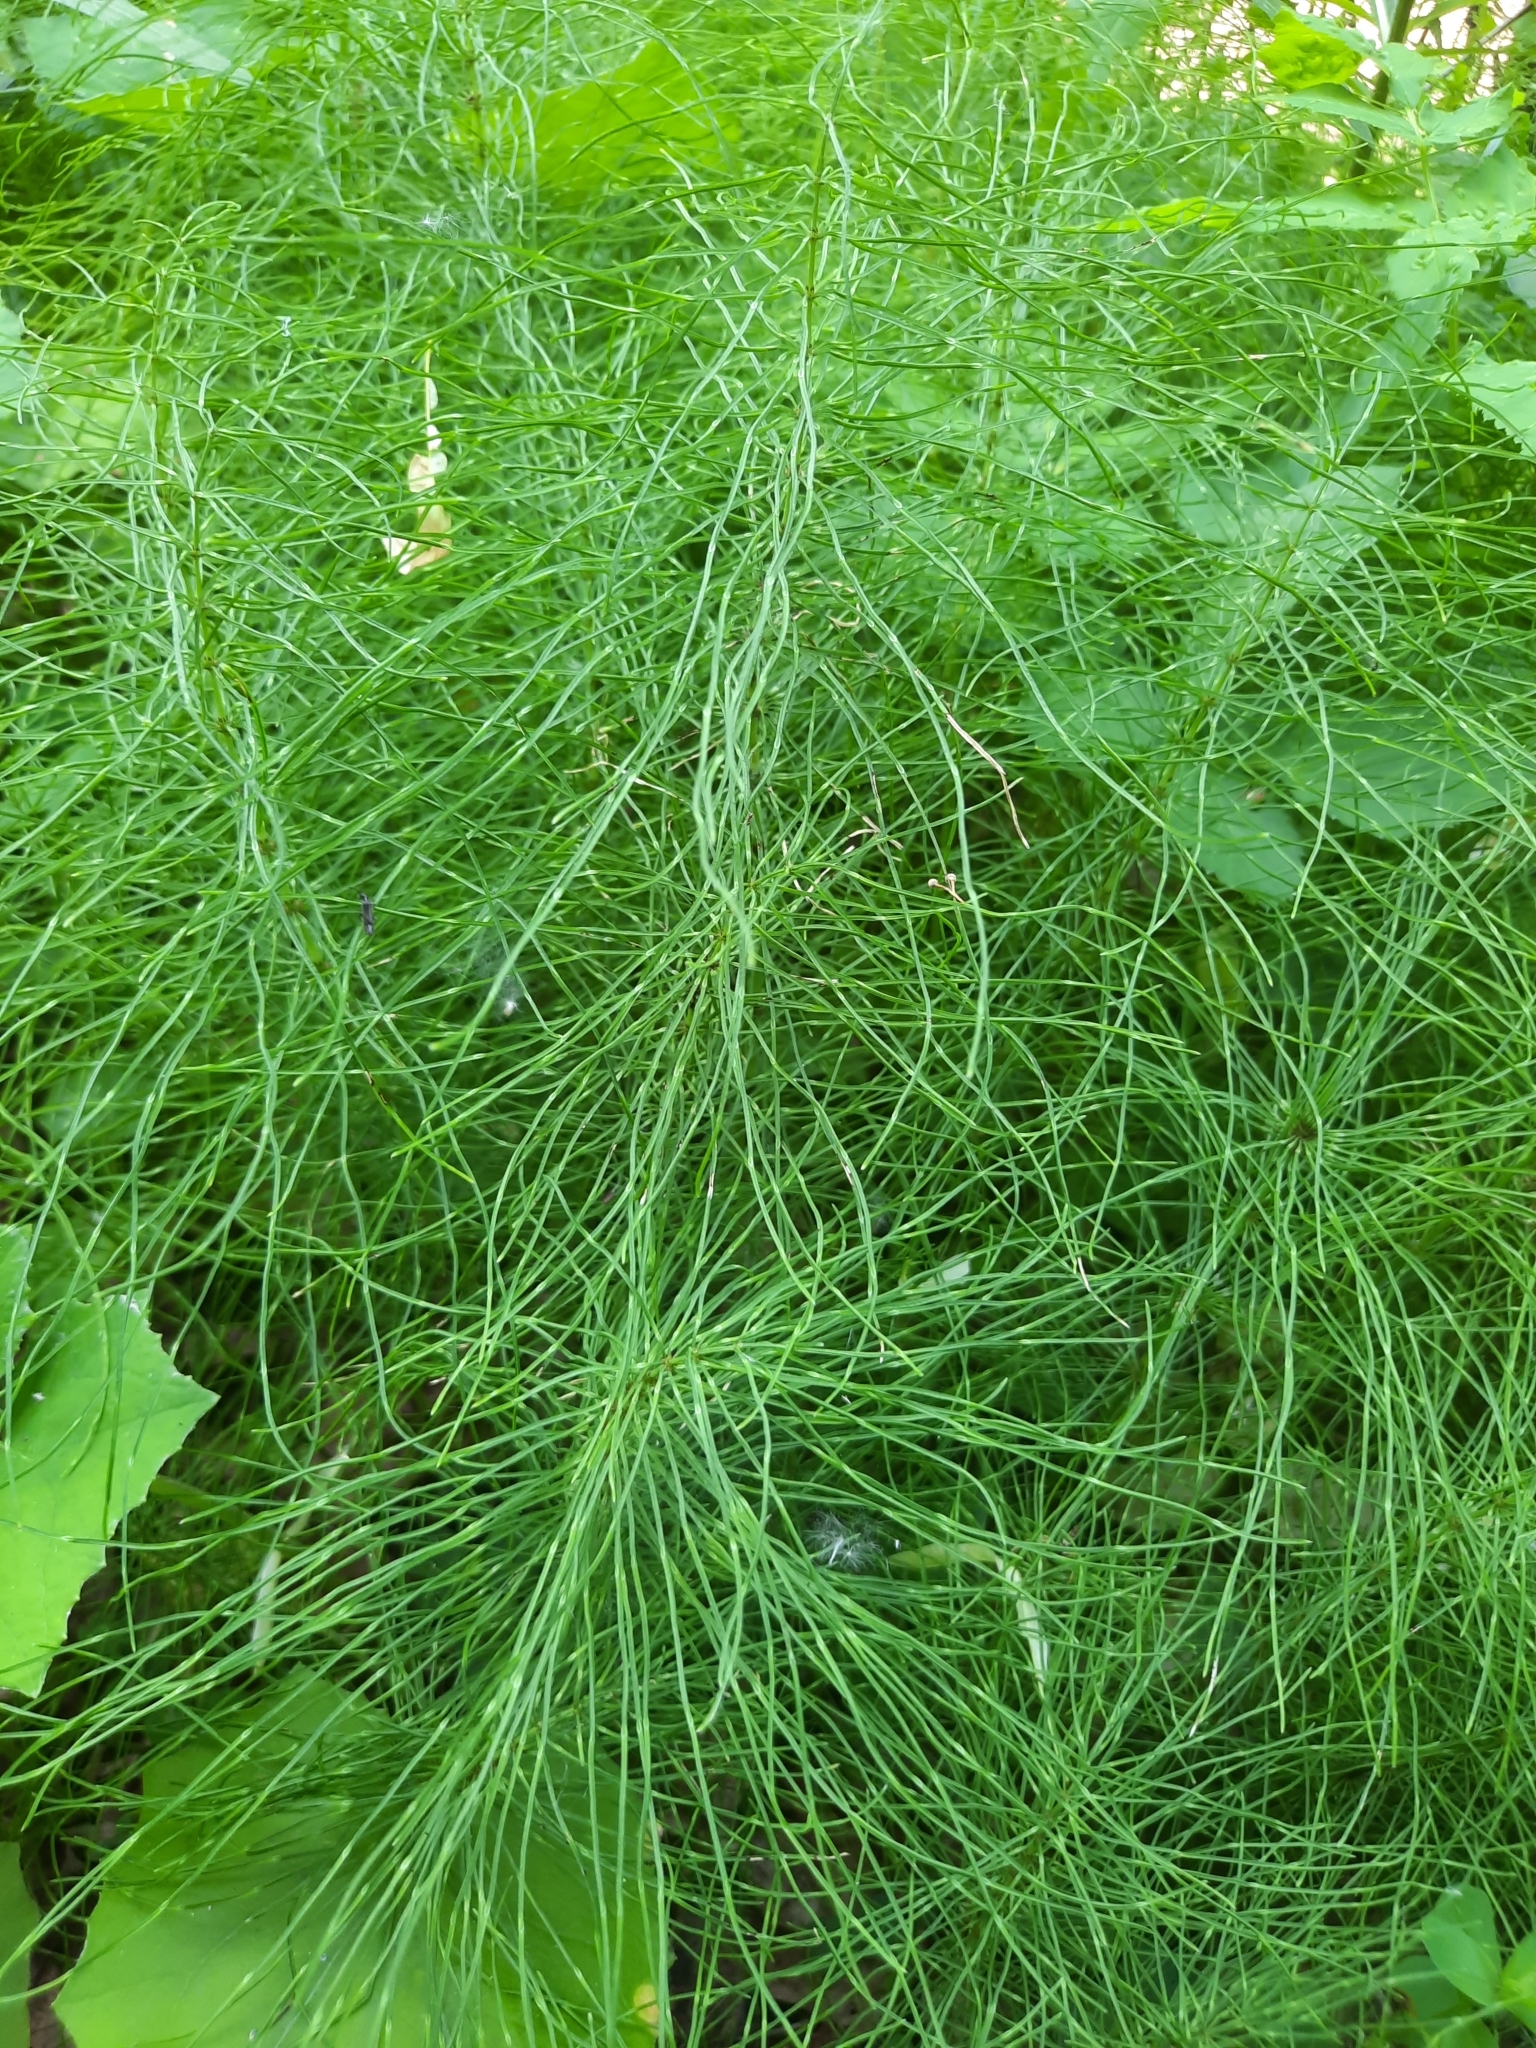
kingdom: Plantae
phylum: Tracheophyta
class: Polypodiopsida
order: Equisetales
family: Equisetaceae
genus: Equisetum
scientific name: Equisetum pratense
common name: Meadow horsetail
